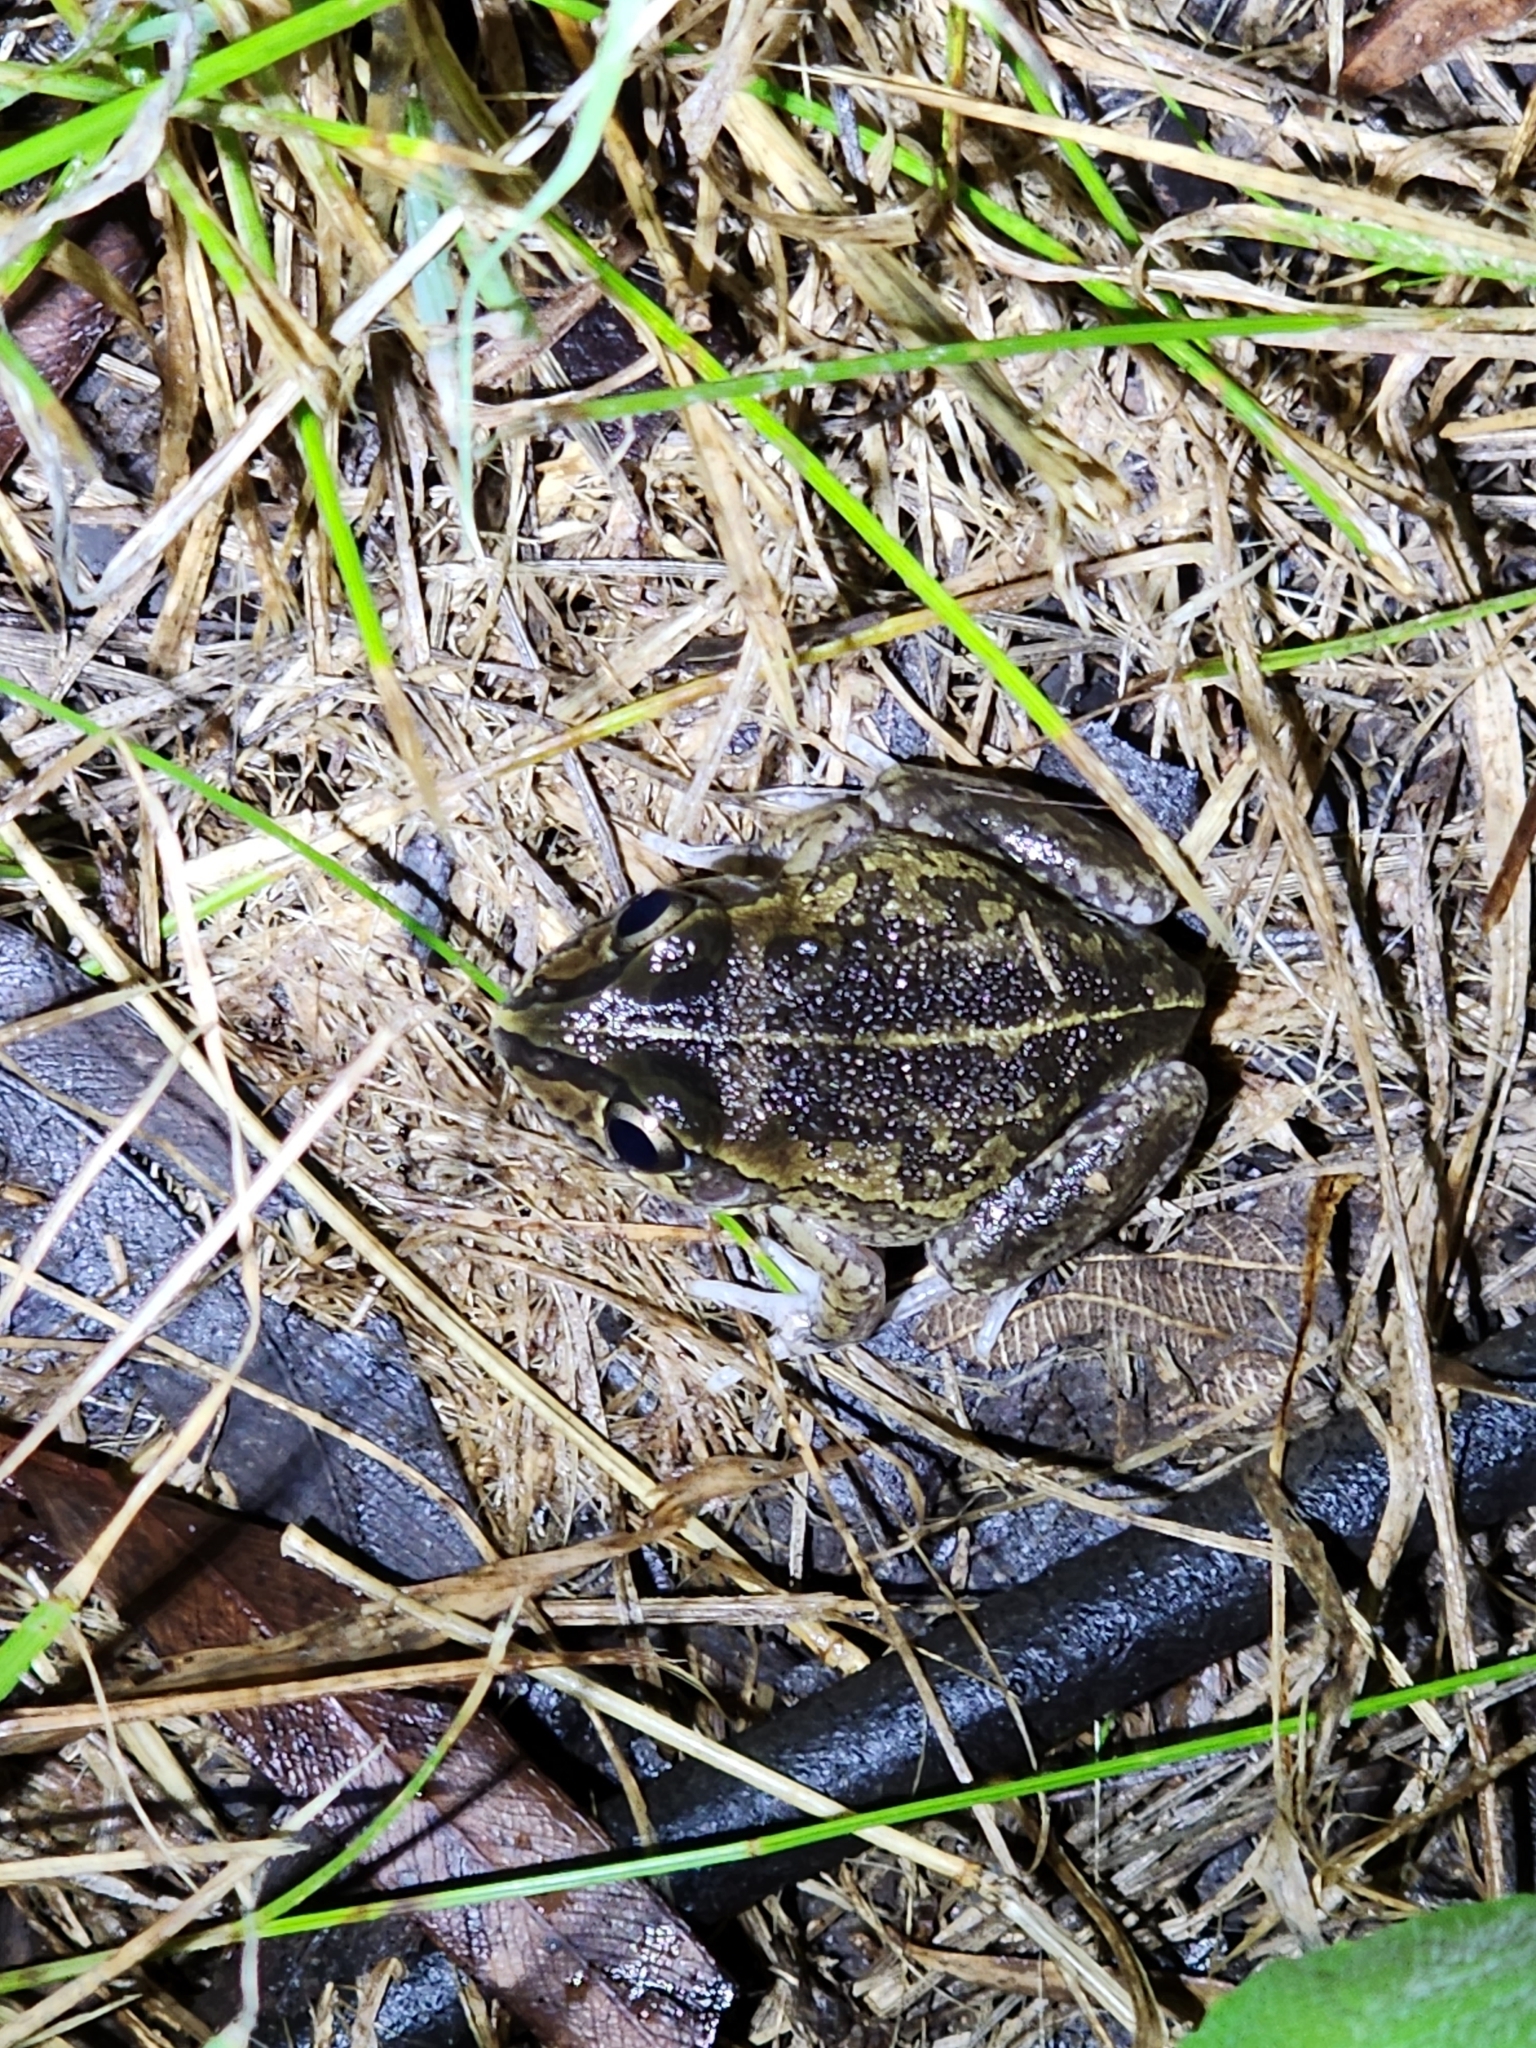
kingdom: Animalia
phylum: Chordata
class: Amphibia
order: Anura
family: Pelodryadidae
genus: Ranoidea
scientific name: Ranoidea brevipes
